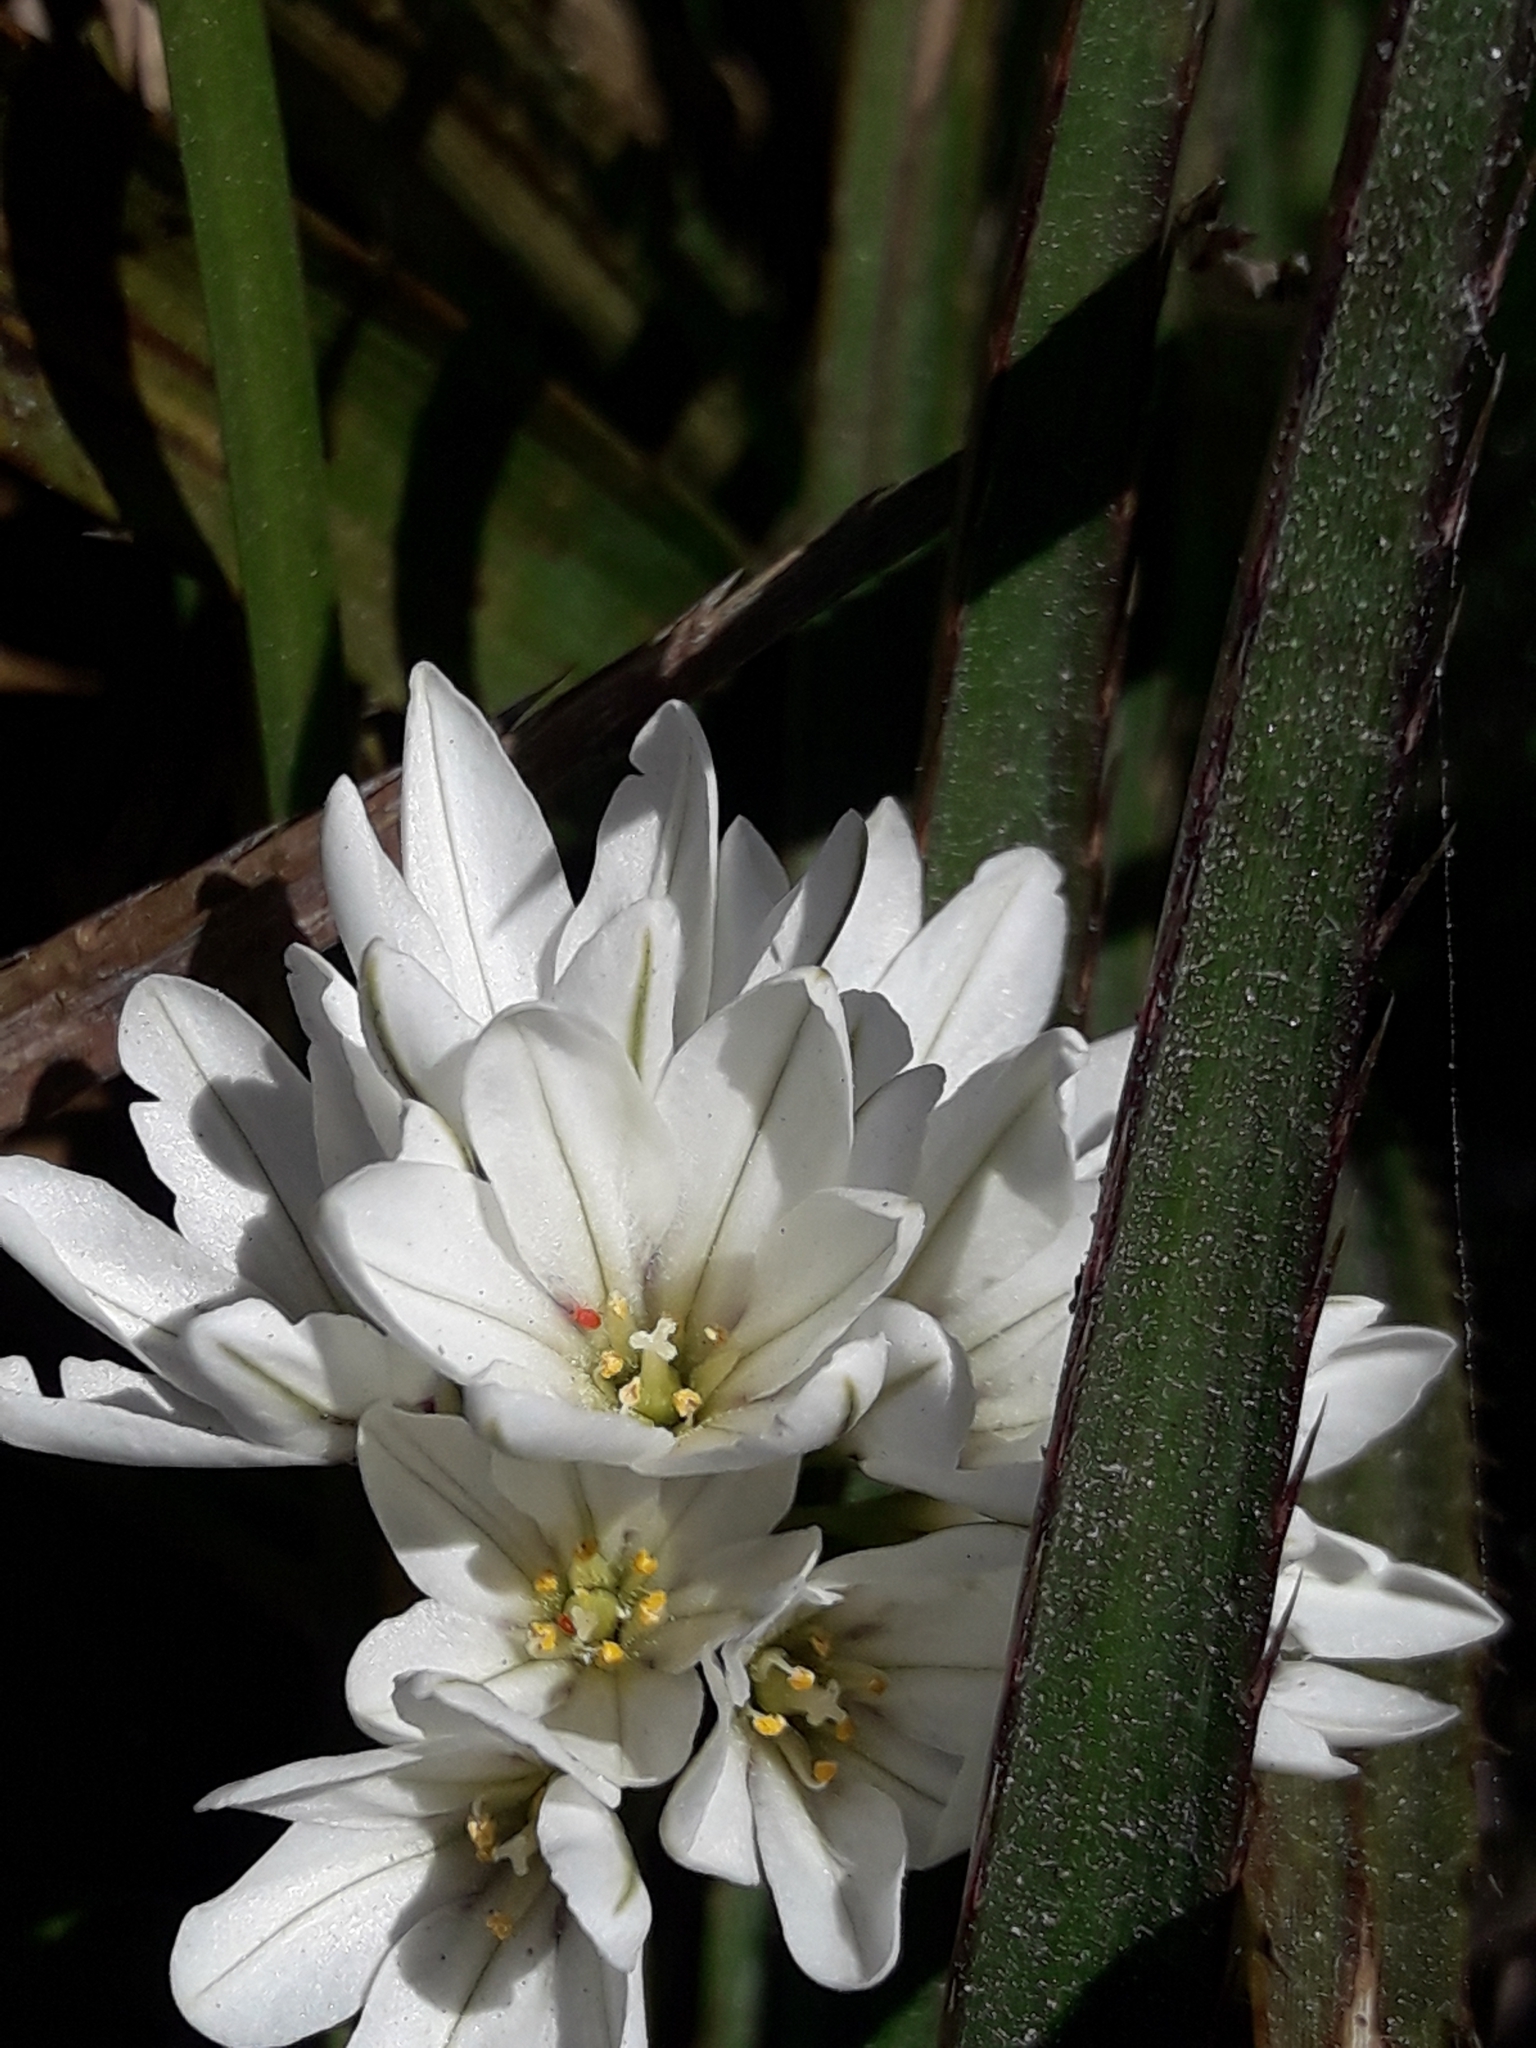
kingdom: Plantae
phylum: Tracheophyta
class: Liliopsida
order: Asparagales
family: Amaryllidaceae
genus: Tristagma
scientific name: Tristagma bivalve
